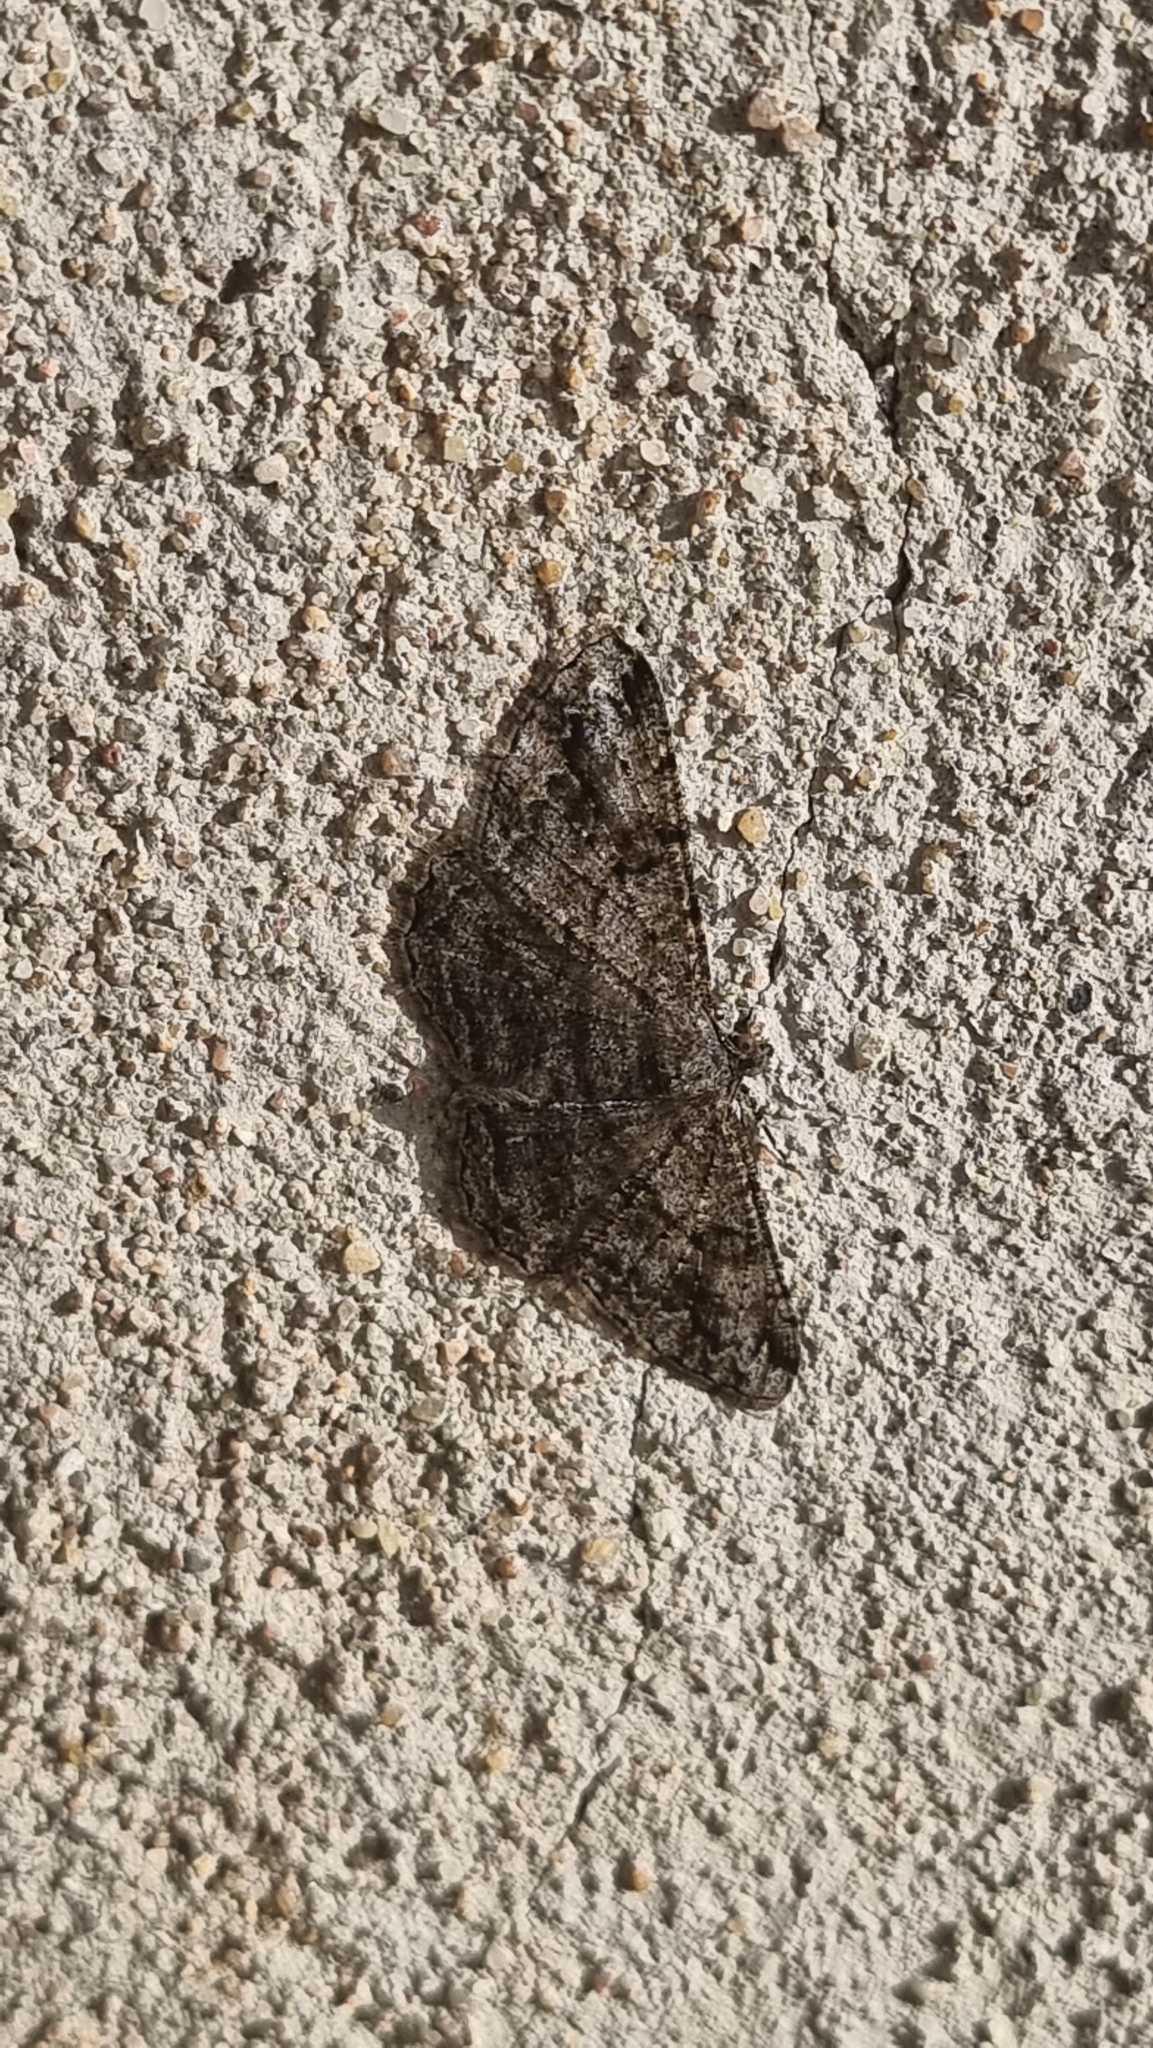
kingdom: Animalia
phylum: Arthropoda
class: Insecta
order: Lepidoptera
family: Geometridae
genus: Peribatodes
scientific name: Peribatodes rhomboidaria
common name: Willow beauty
